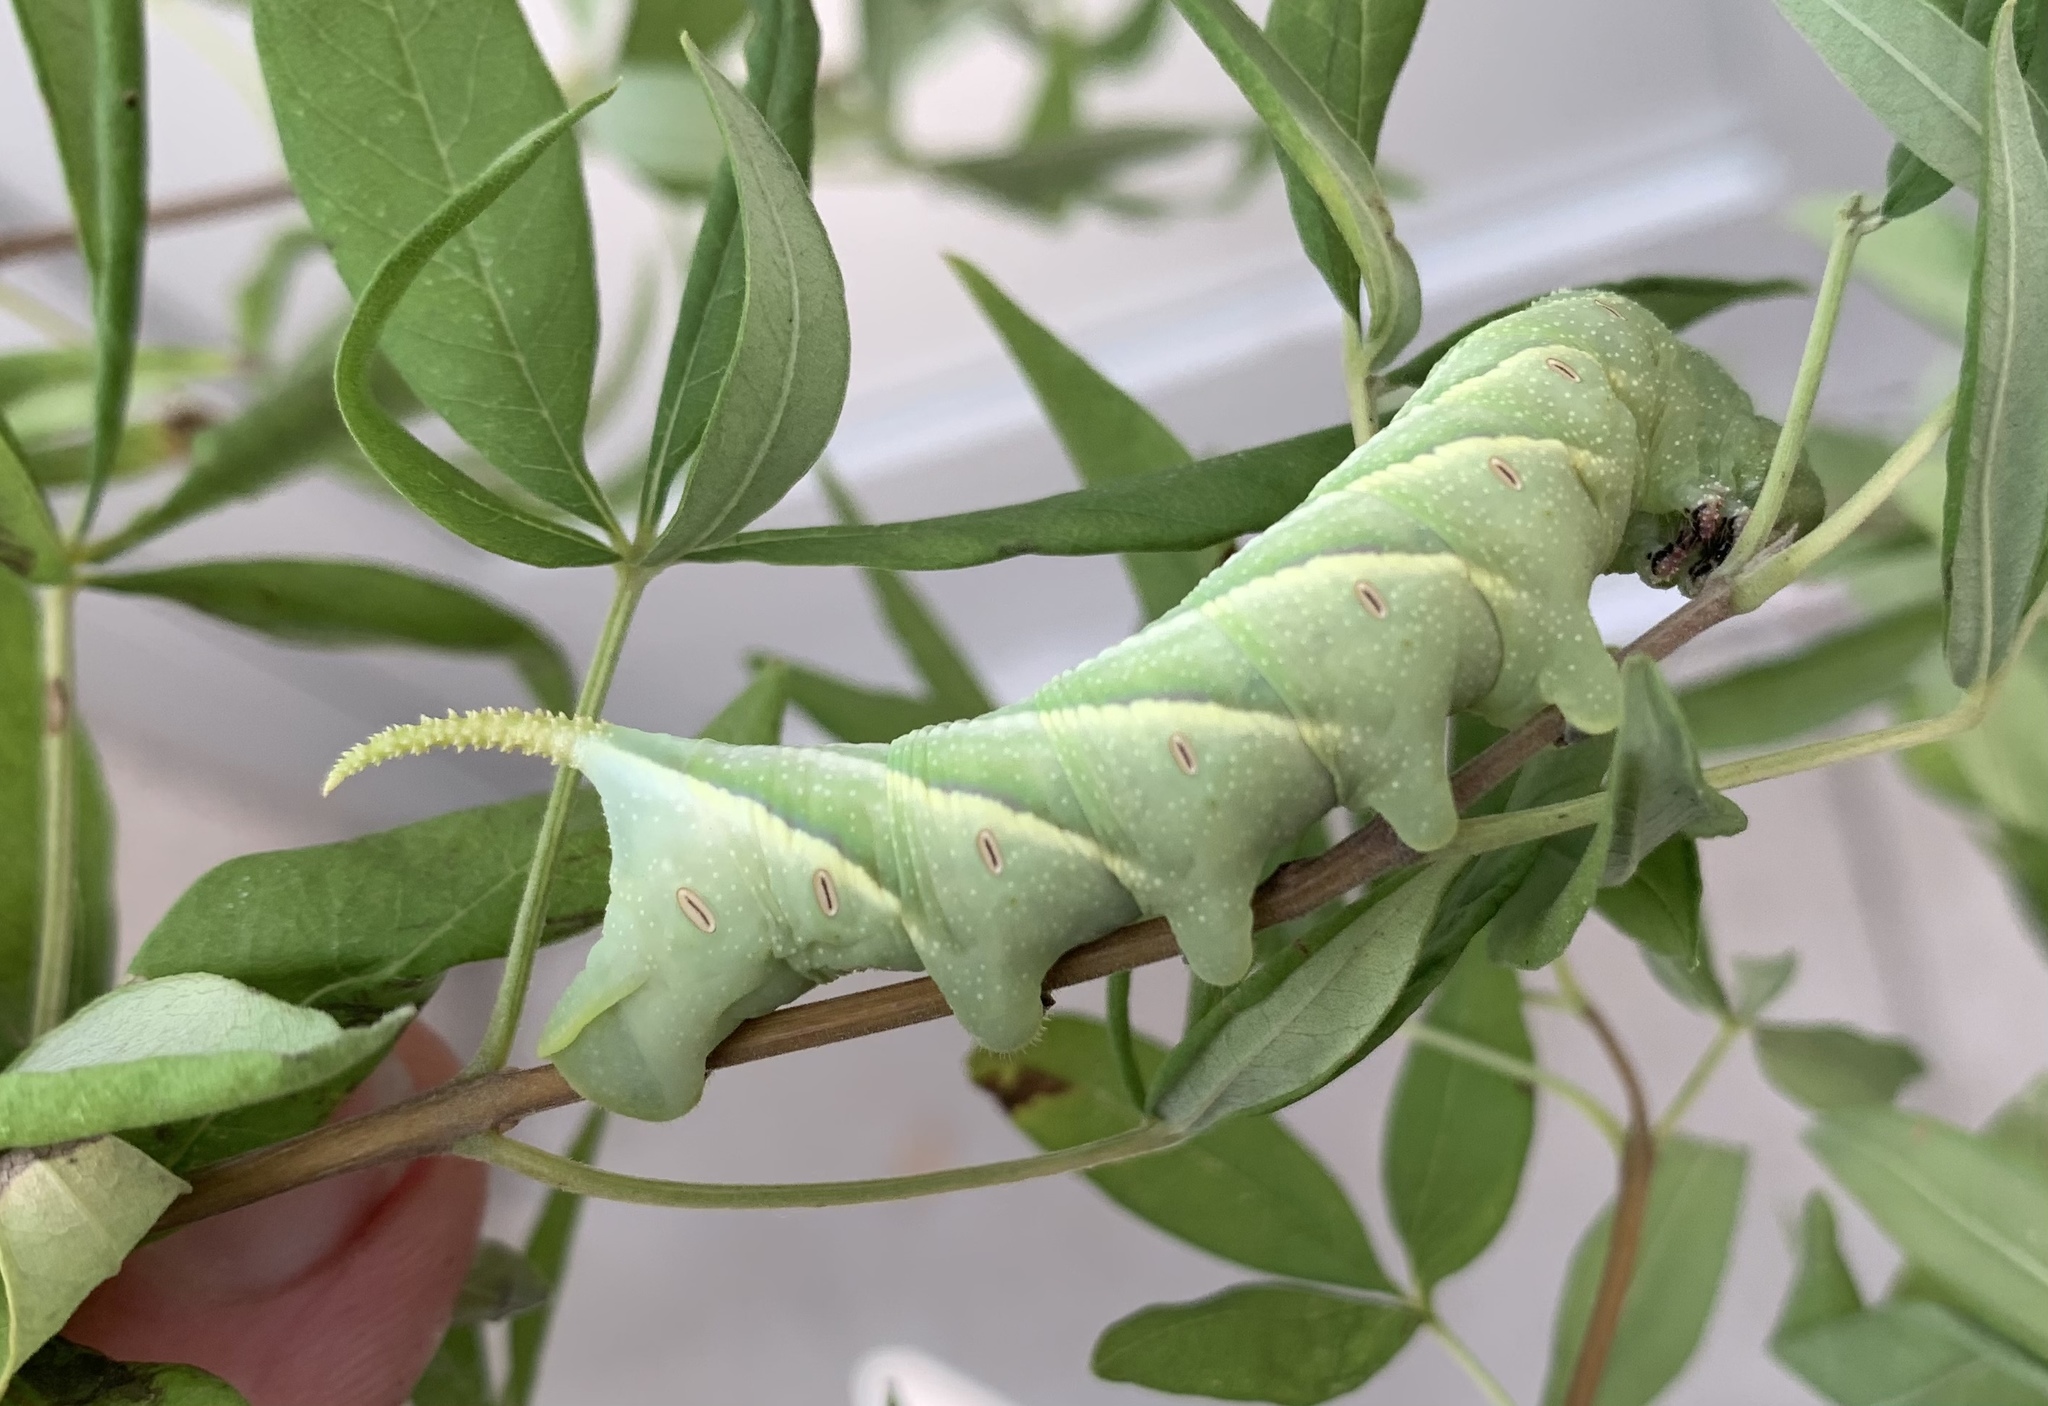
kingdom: Animalia
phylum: Arthropoda
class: Insecta
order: Lepidoptera
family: Sphingidae
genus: Manduca
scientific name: Manduca rustica
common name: Rustic sphinx
